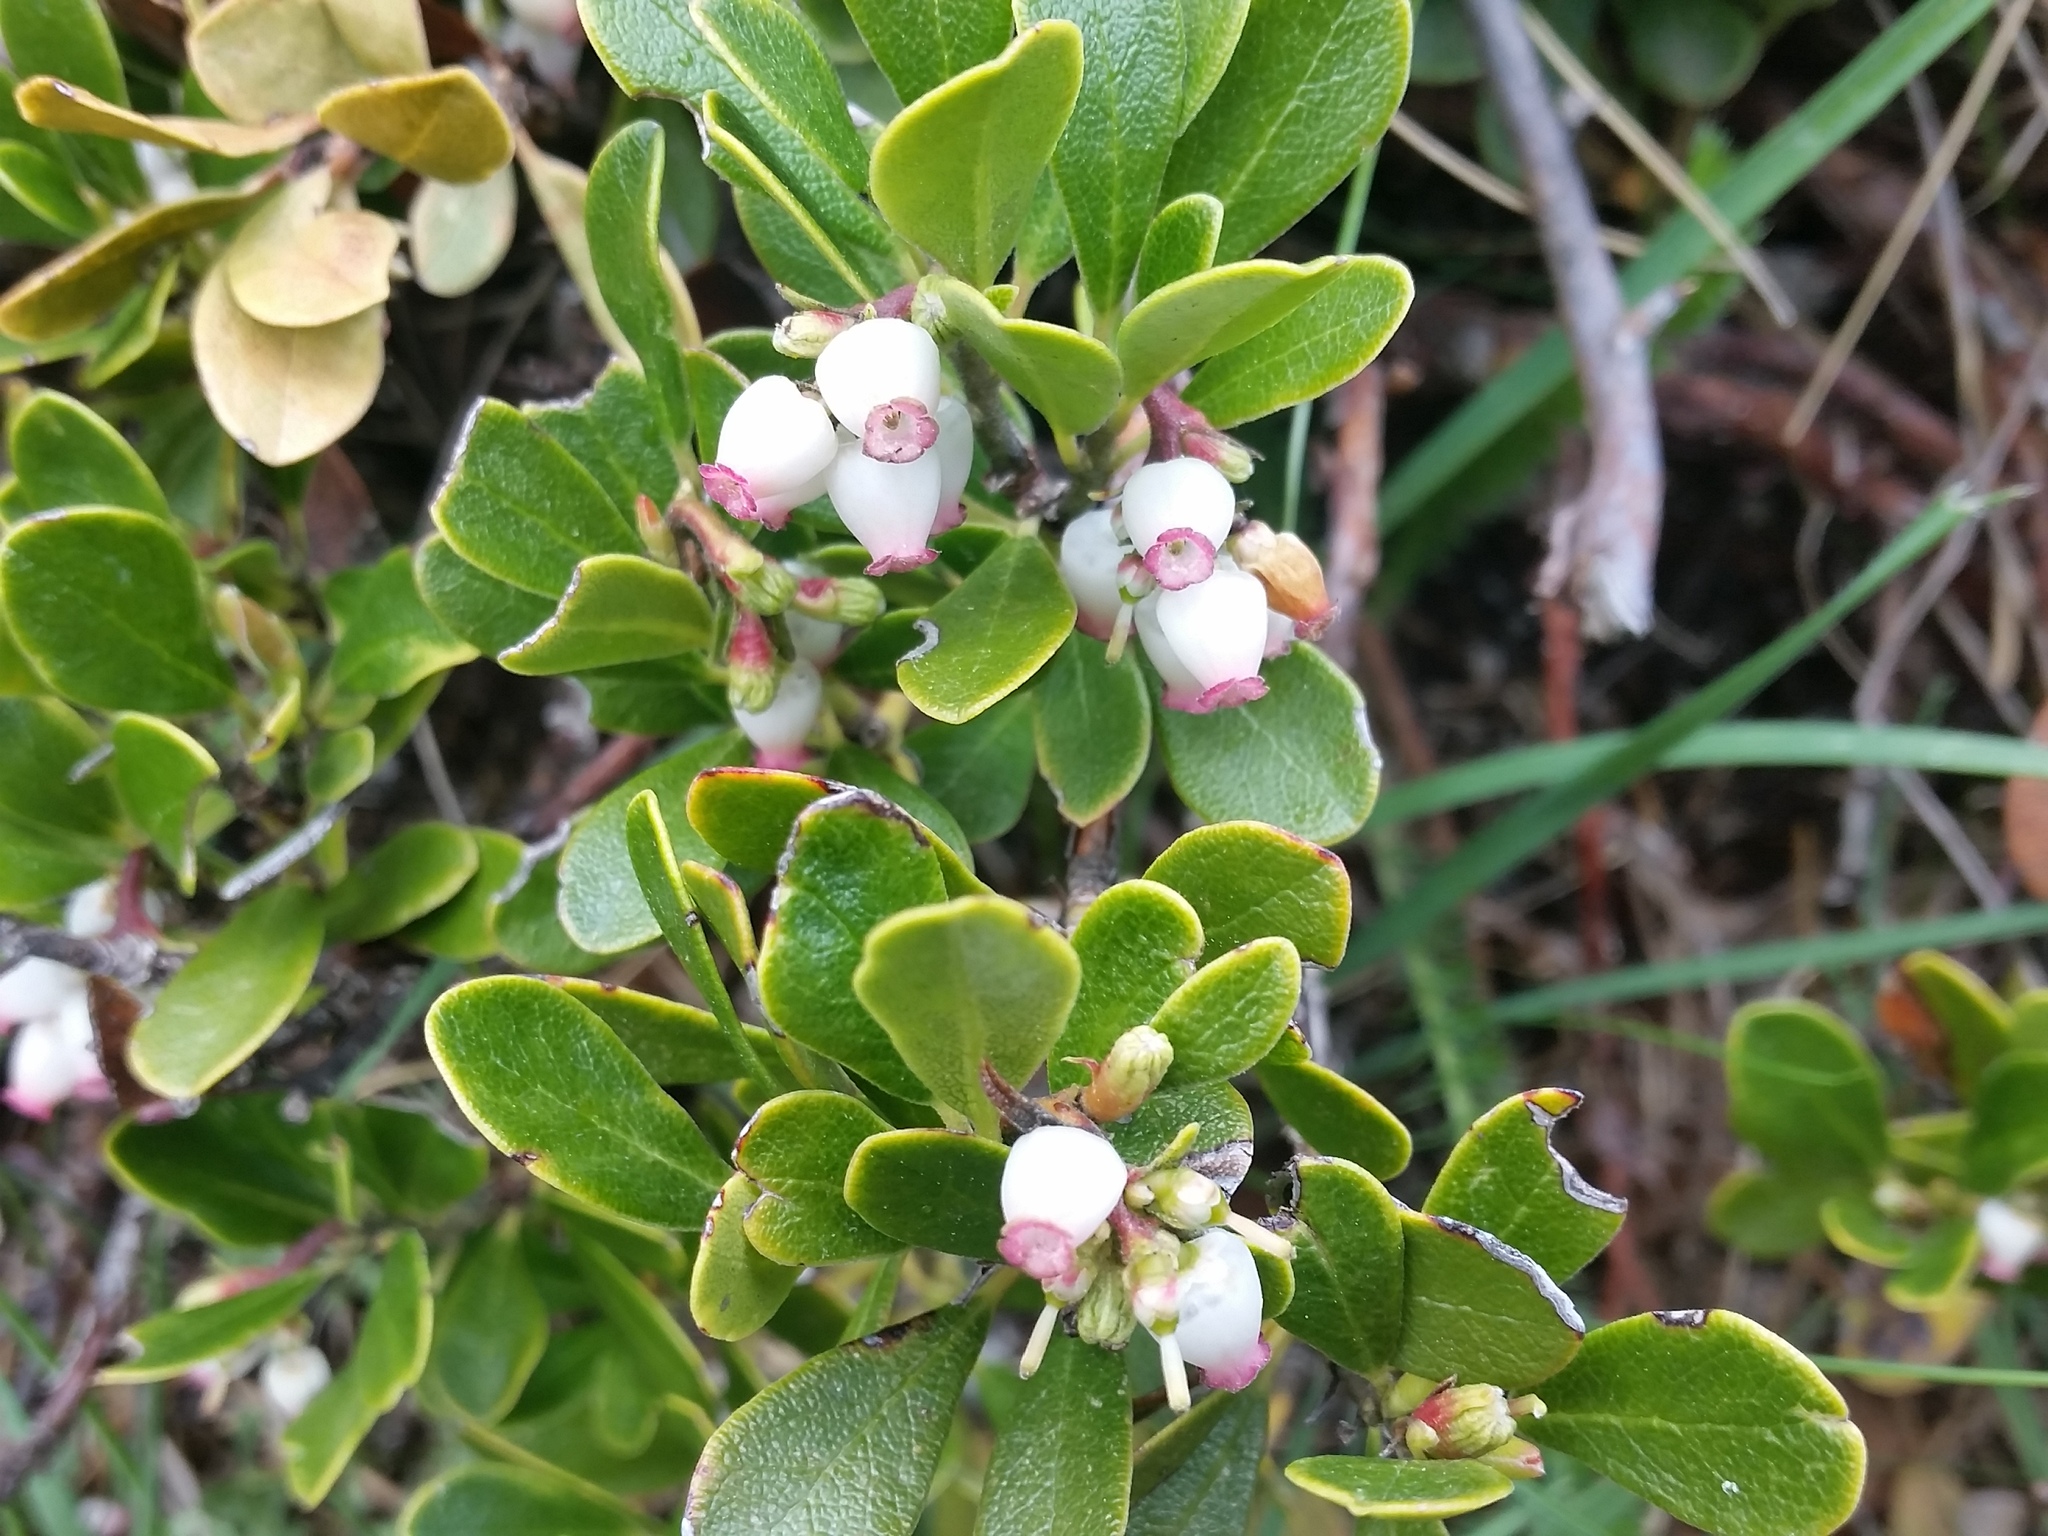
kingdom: Plantae
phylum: Tracheophyta
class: Magnoliopsida
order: Ericales
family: Ericaceae
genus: Arctostaphylos
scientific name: Arctostaphylos uva-ursi
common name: Bearberry
